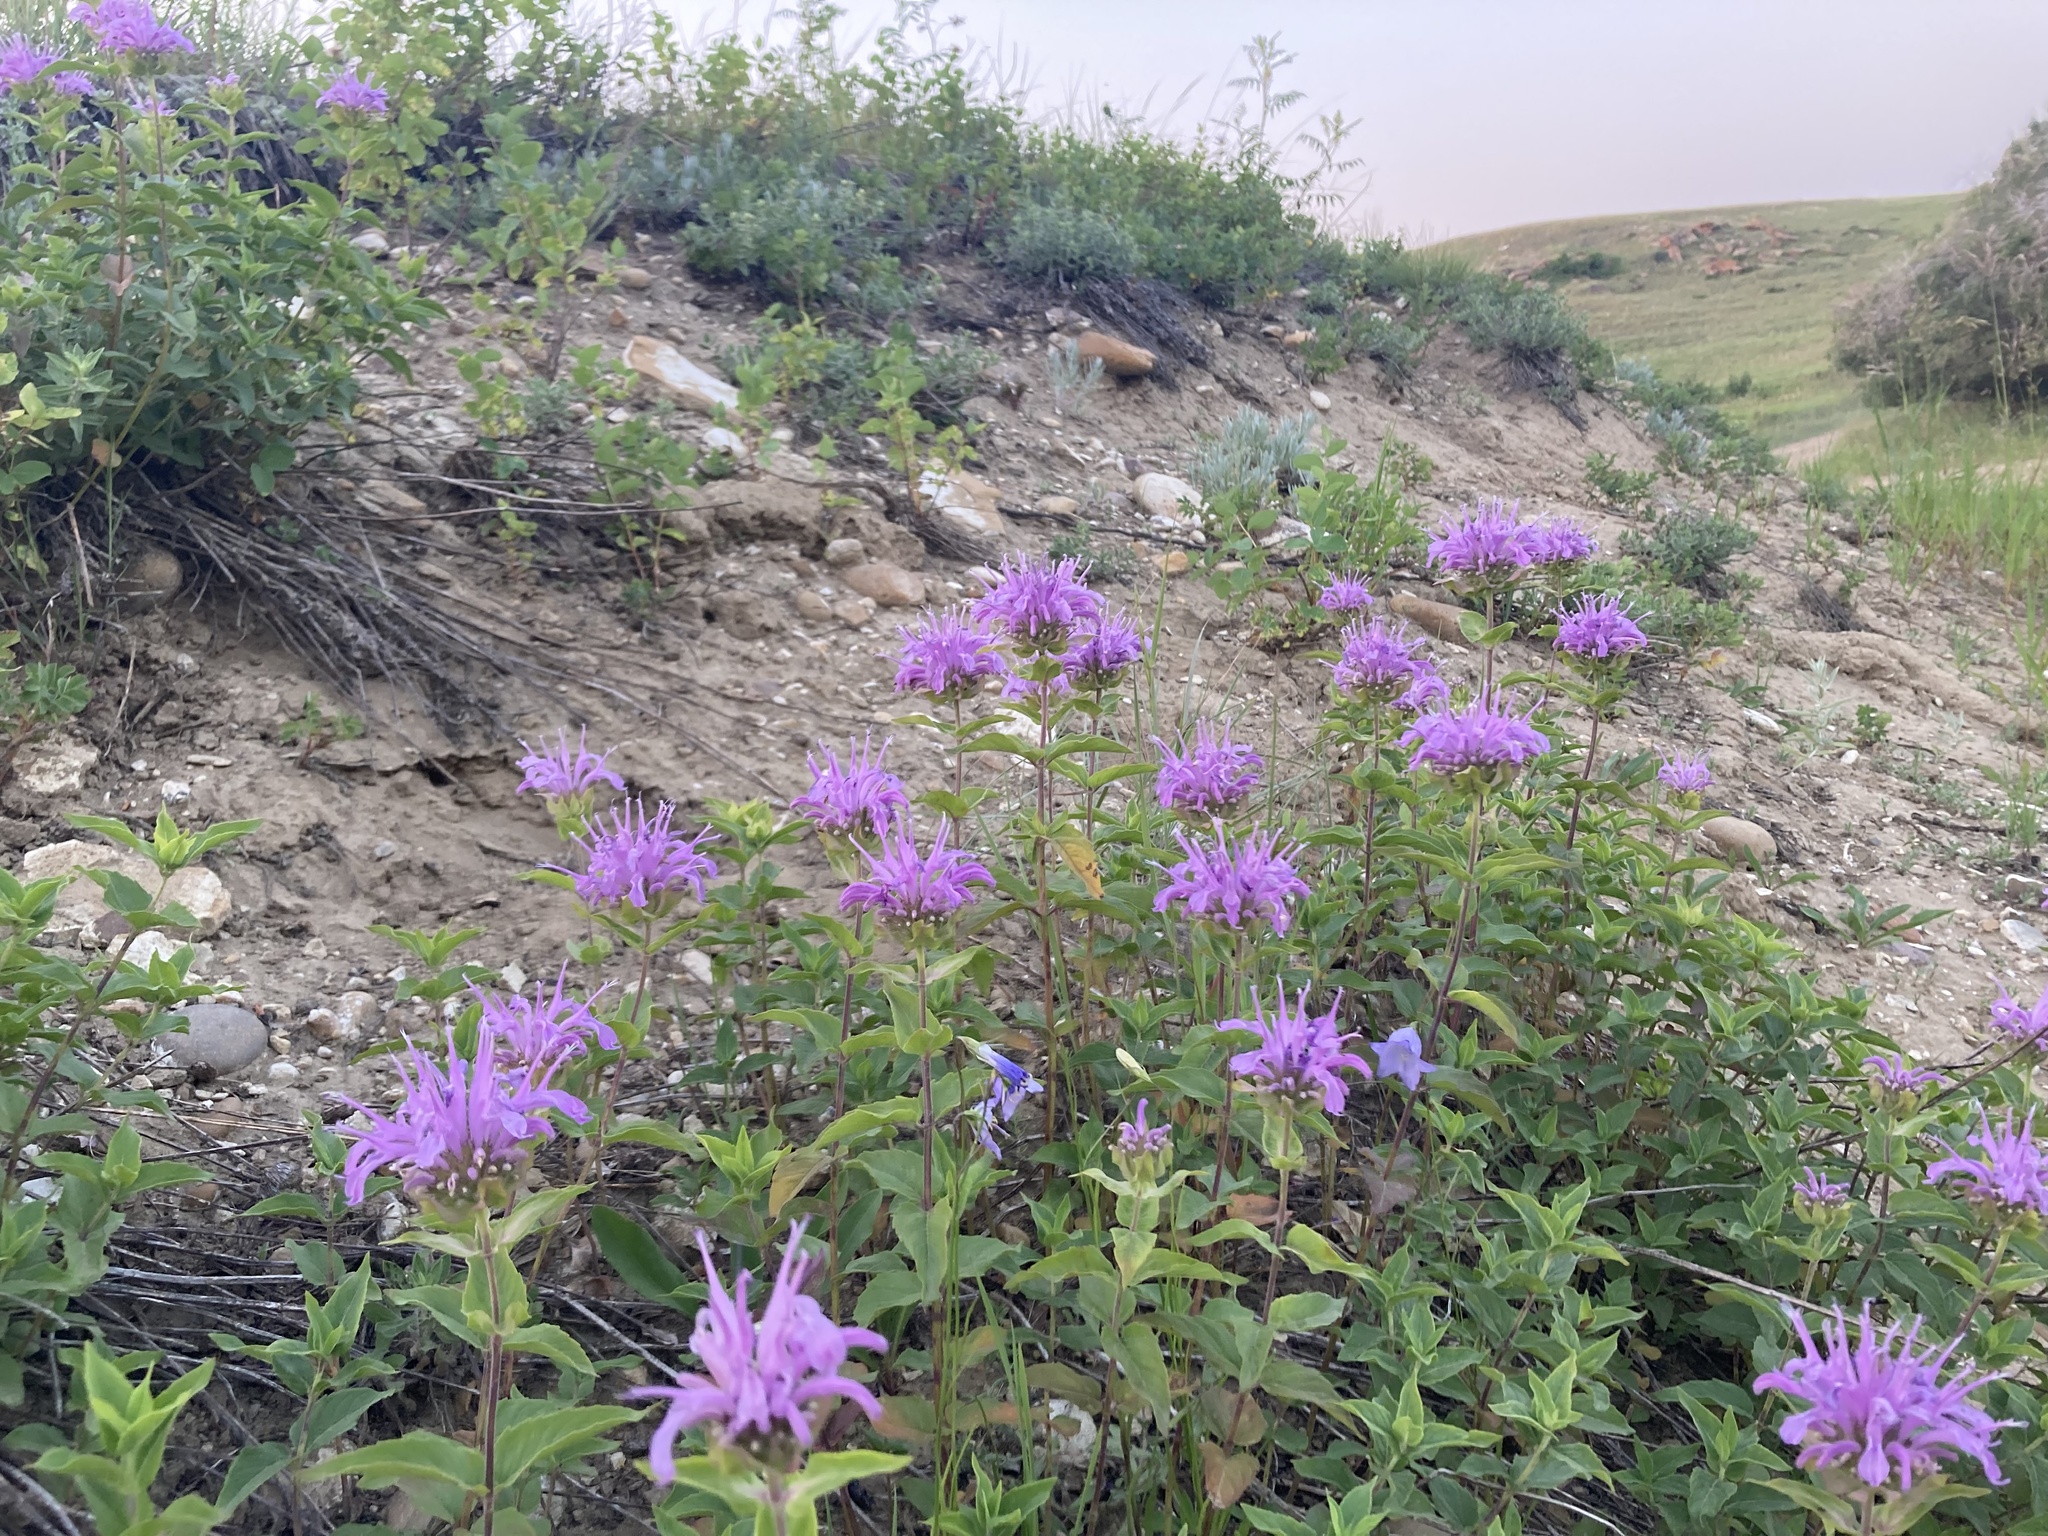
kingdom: Plantae
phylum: Tracheophyta
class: Magnoliopsida
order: Lamiales
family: Lamiaceae
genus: Monarda
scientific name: Monarda fistulosa
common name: Purple beebalm
